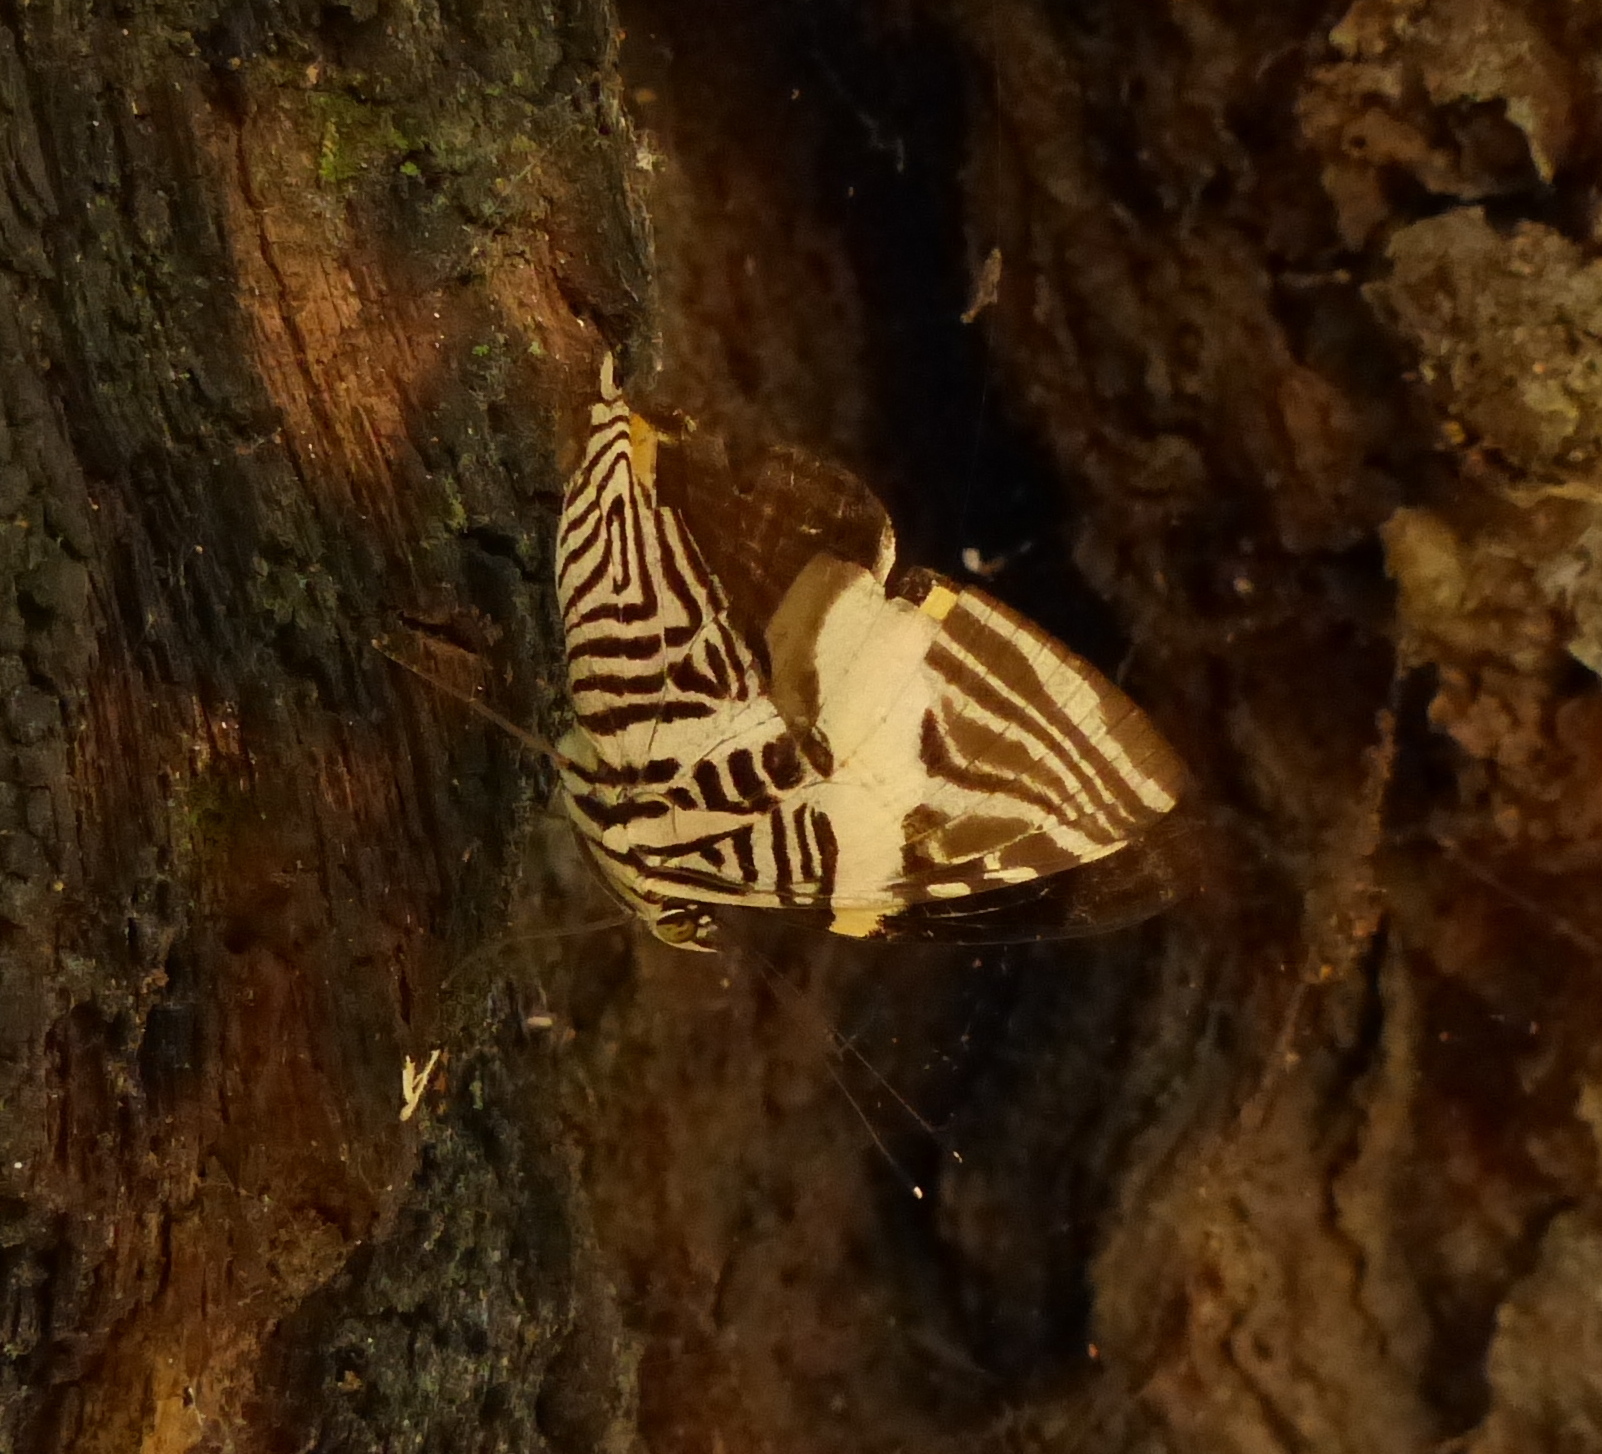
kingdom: Animalia
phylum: Arthropoda
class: Insecta
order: Lepidoptera
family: Nymphalidae
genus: Colobura
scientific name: Colobura dirce
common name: Dirce beauty
